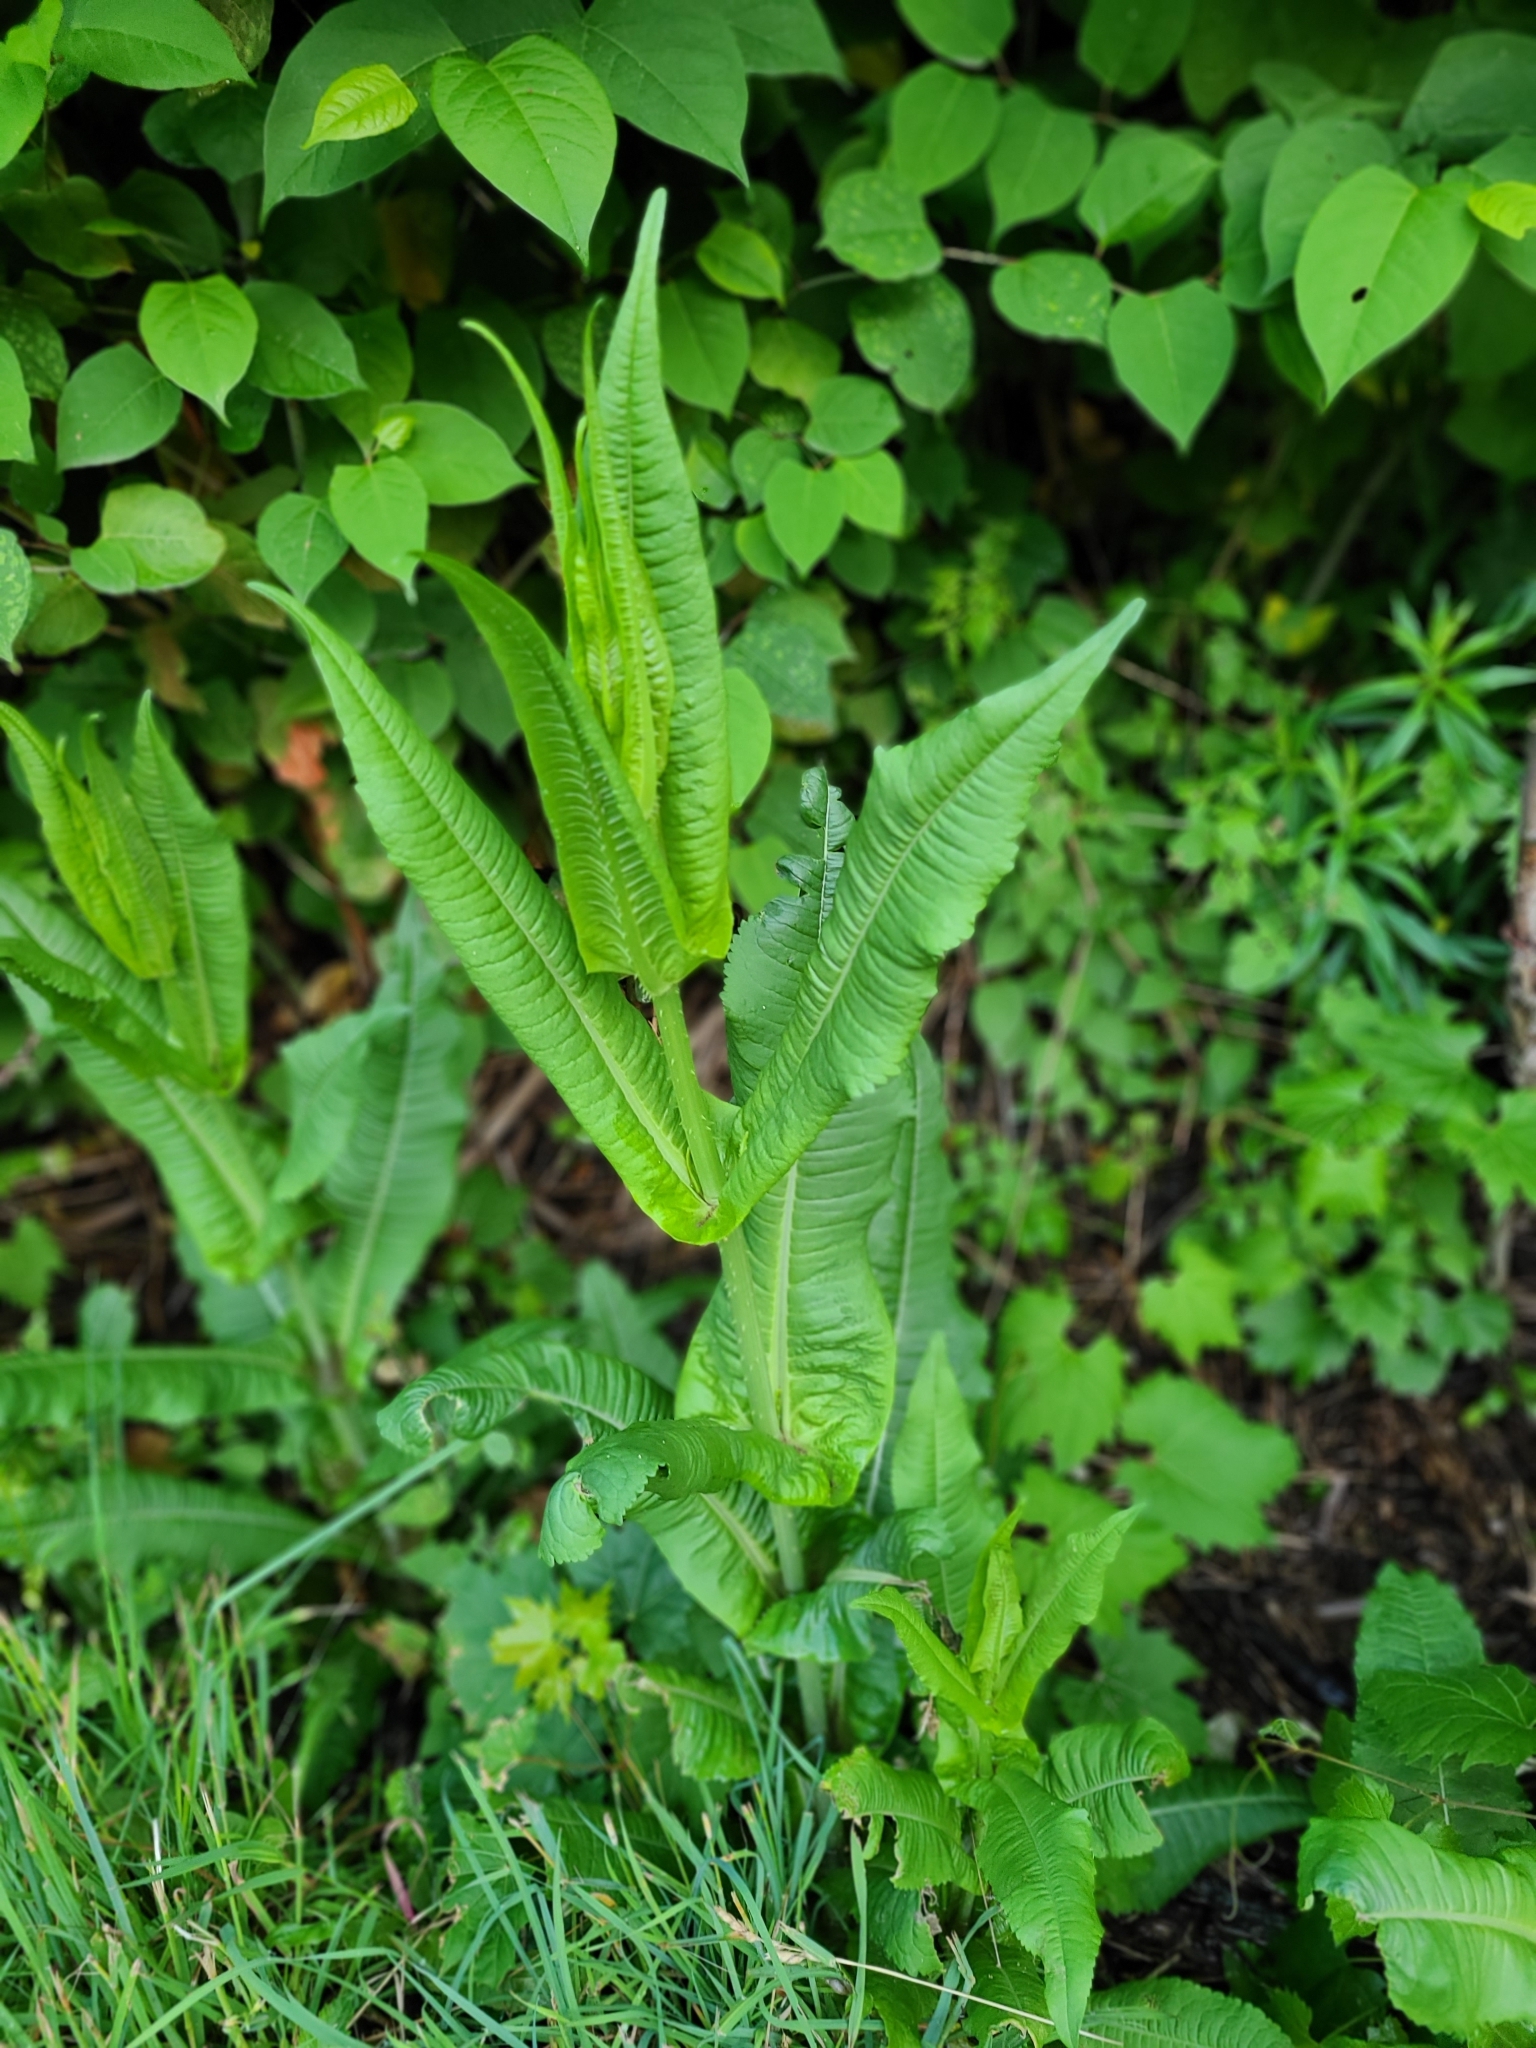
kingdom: Plantae
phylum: Tracheophyta
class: Magnoliopsida
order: Dipsacales
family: Caprifoliaceae
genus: Dipsacus
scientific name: Dipsacus fullonum
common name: Teasel
